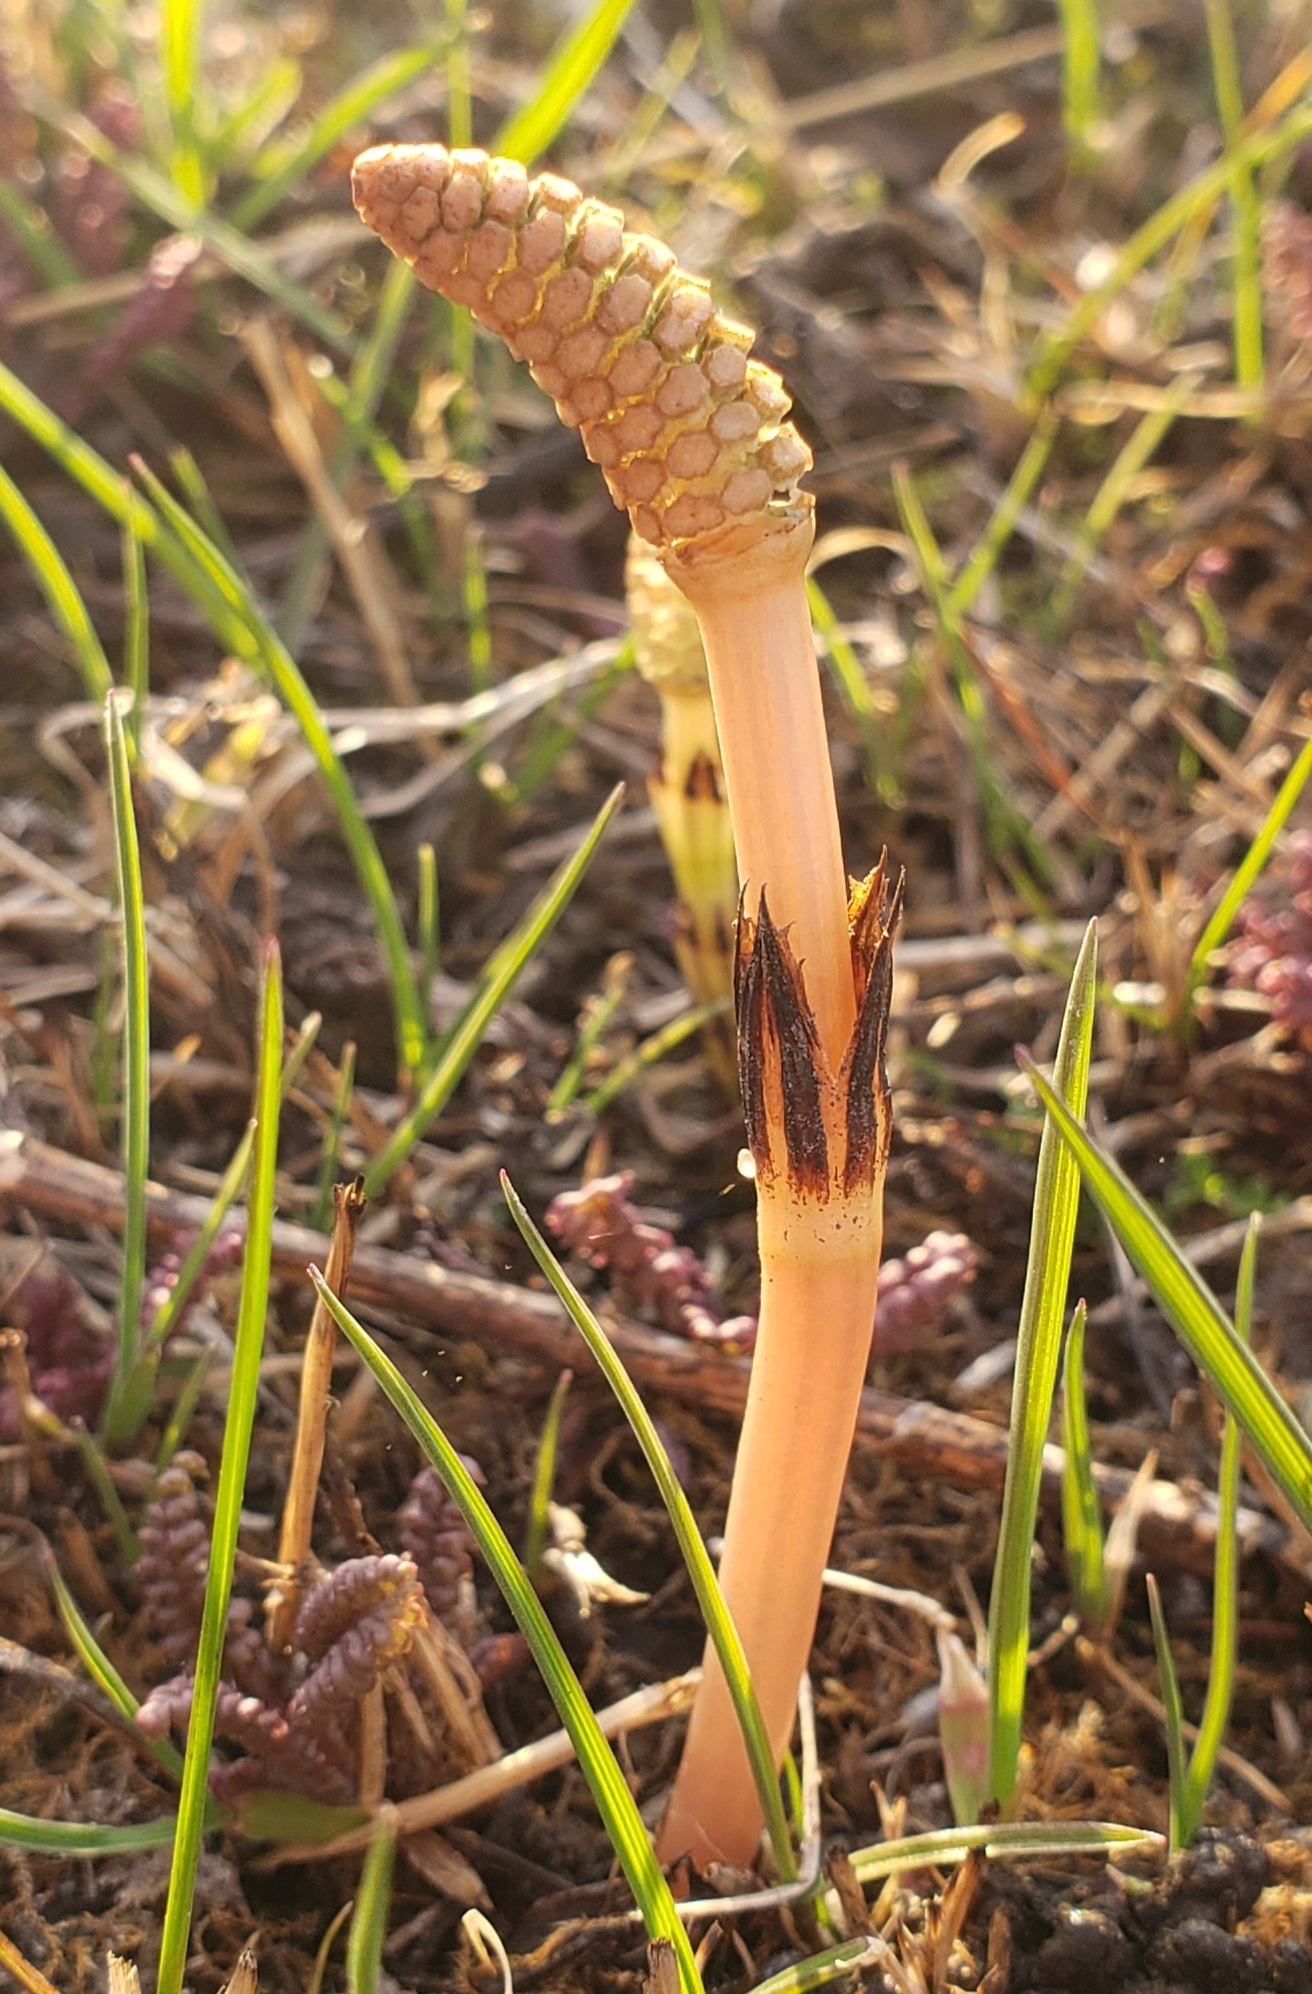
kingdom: Plantae
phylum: Tracheophyta
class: Polypodiopsida
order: Equisetales
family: Equisetaceae
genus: Equisetum
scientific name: Equisetum arvense
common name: Field horsetail
